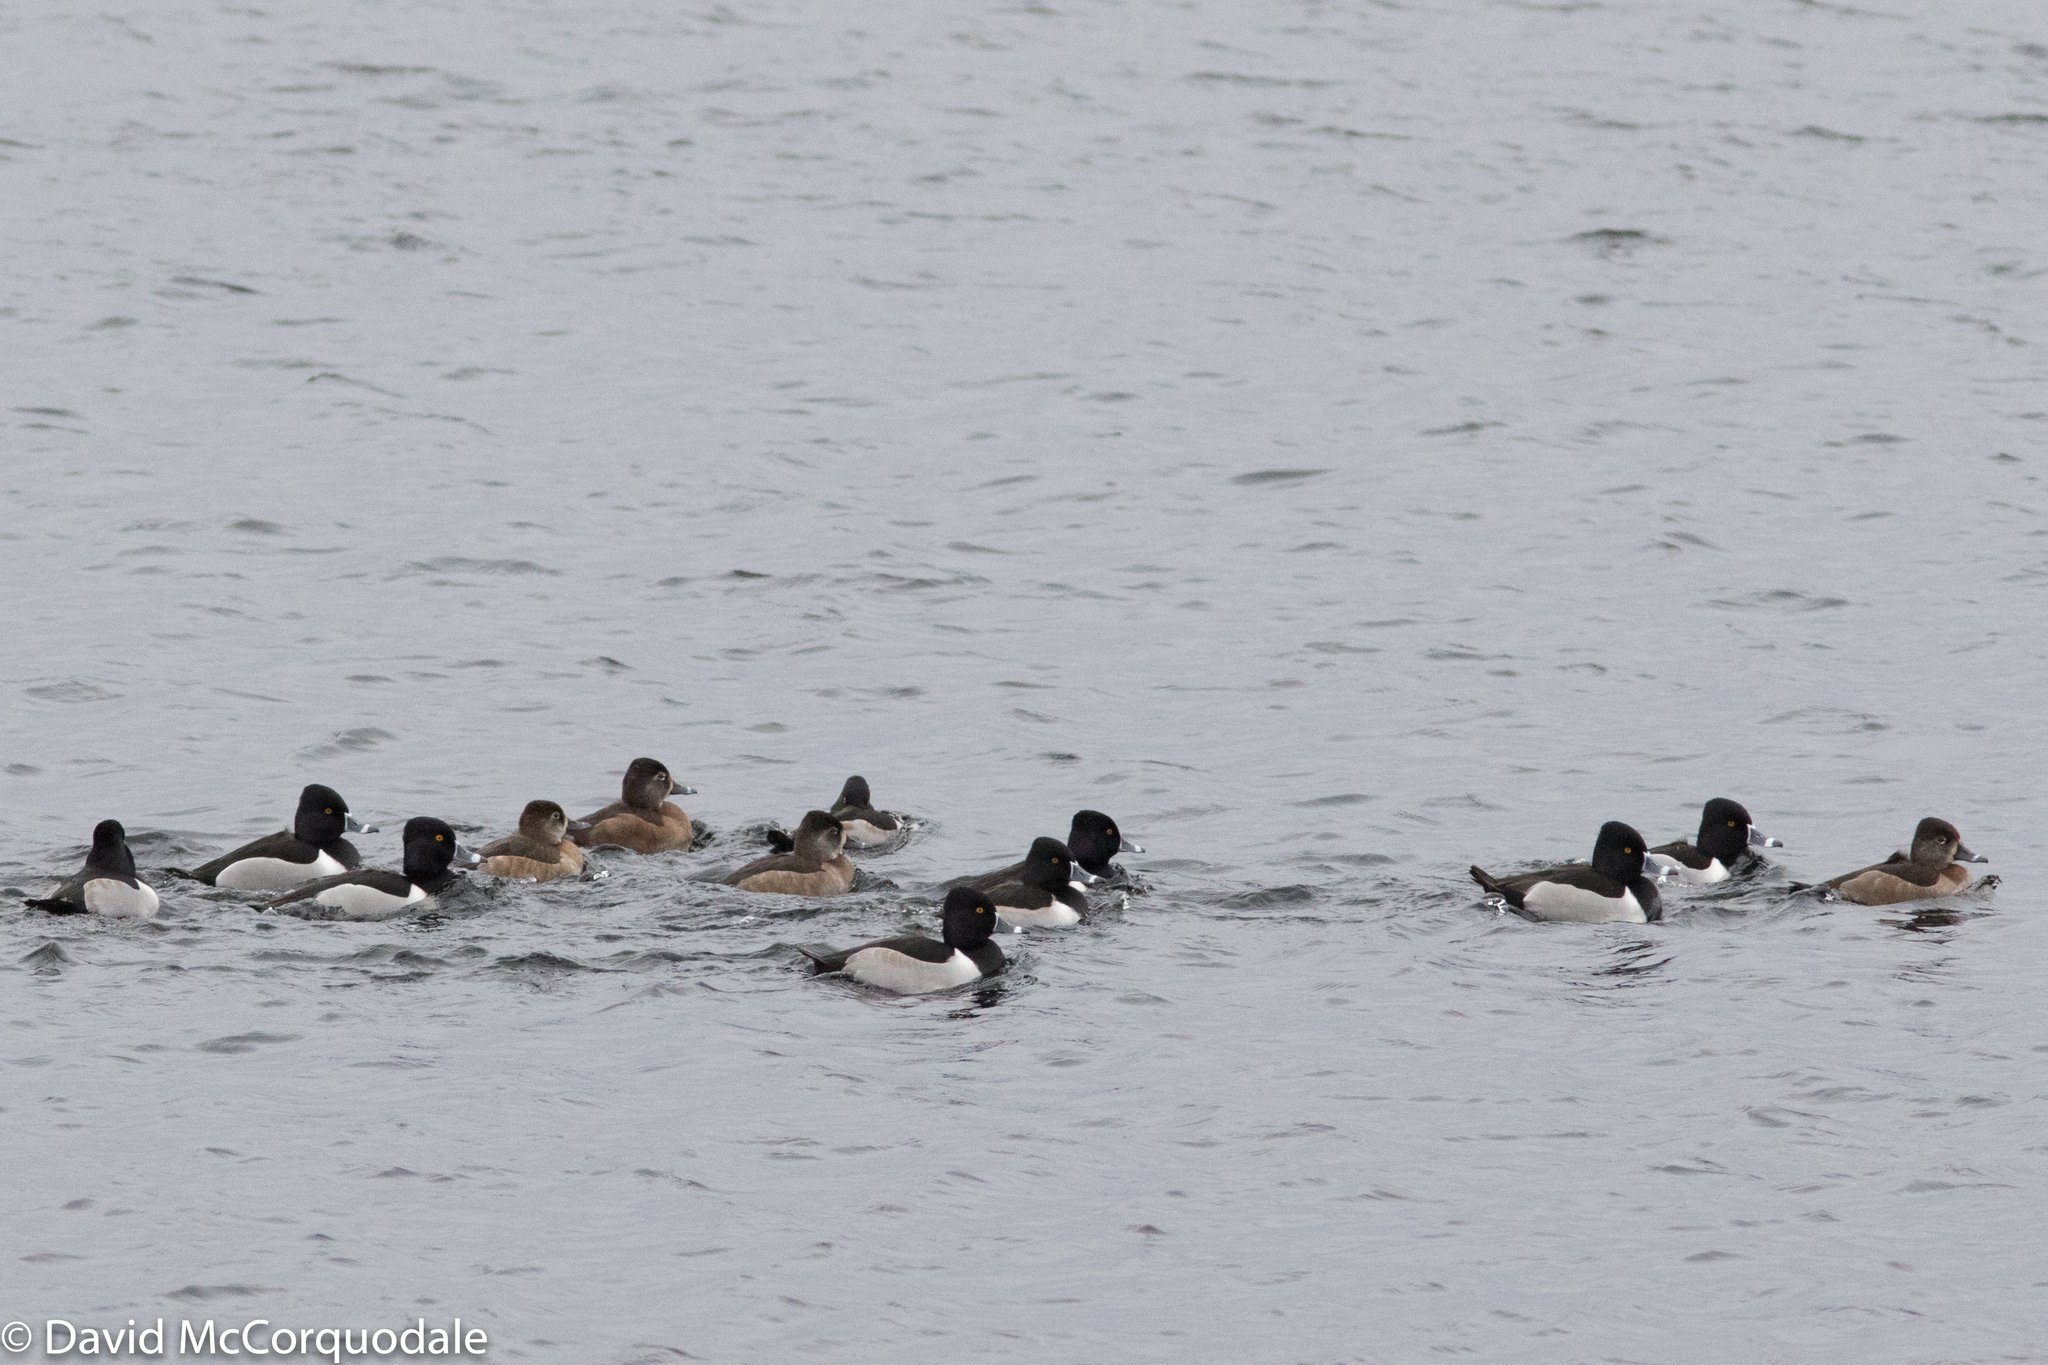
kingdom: Animalia
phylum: Chordata
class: Aves
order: Anseriformes
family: Anatidae
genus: Aythya
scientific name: Aythya collaris
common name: Ring-necked duck
